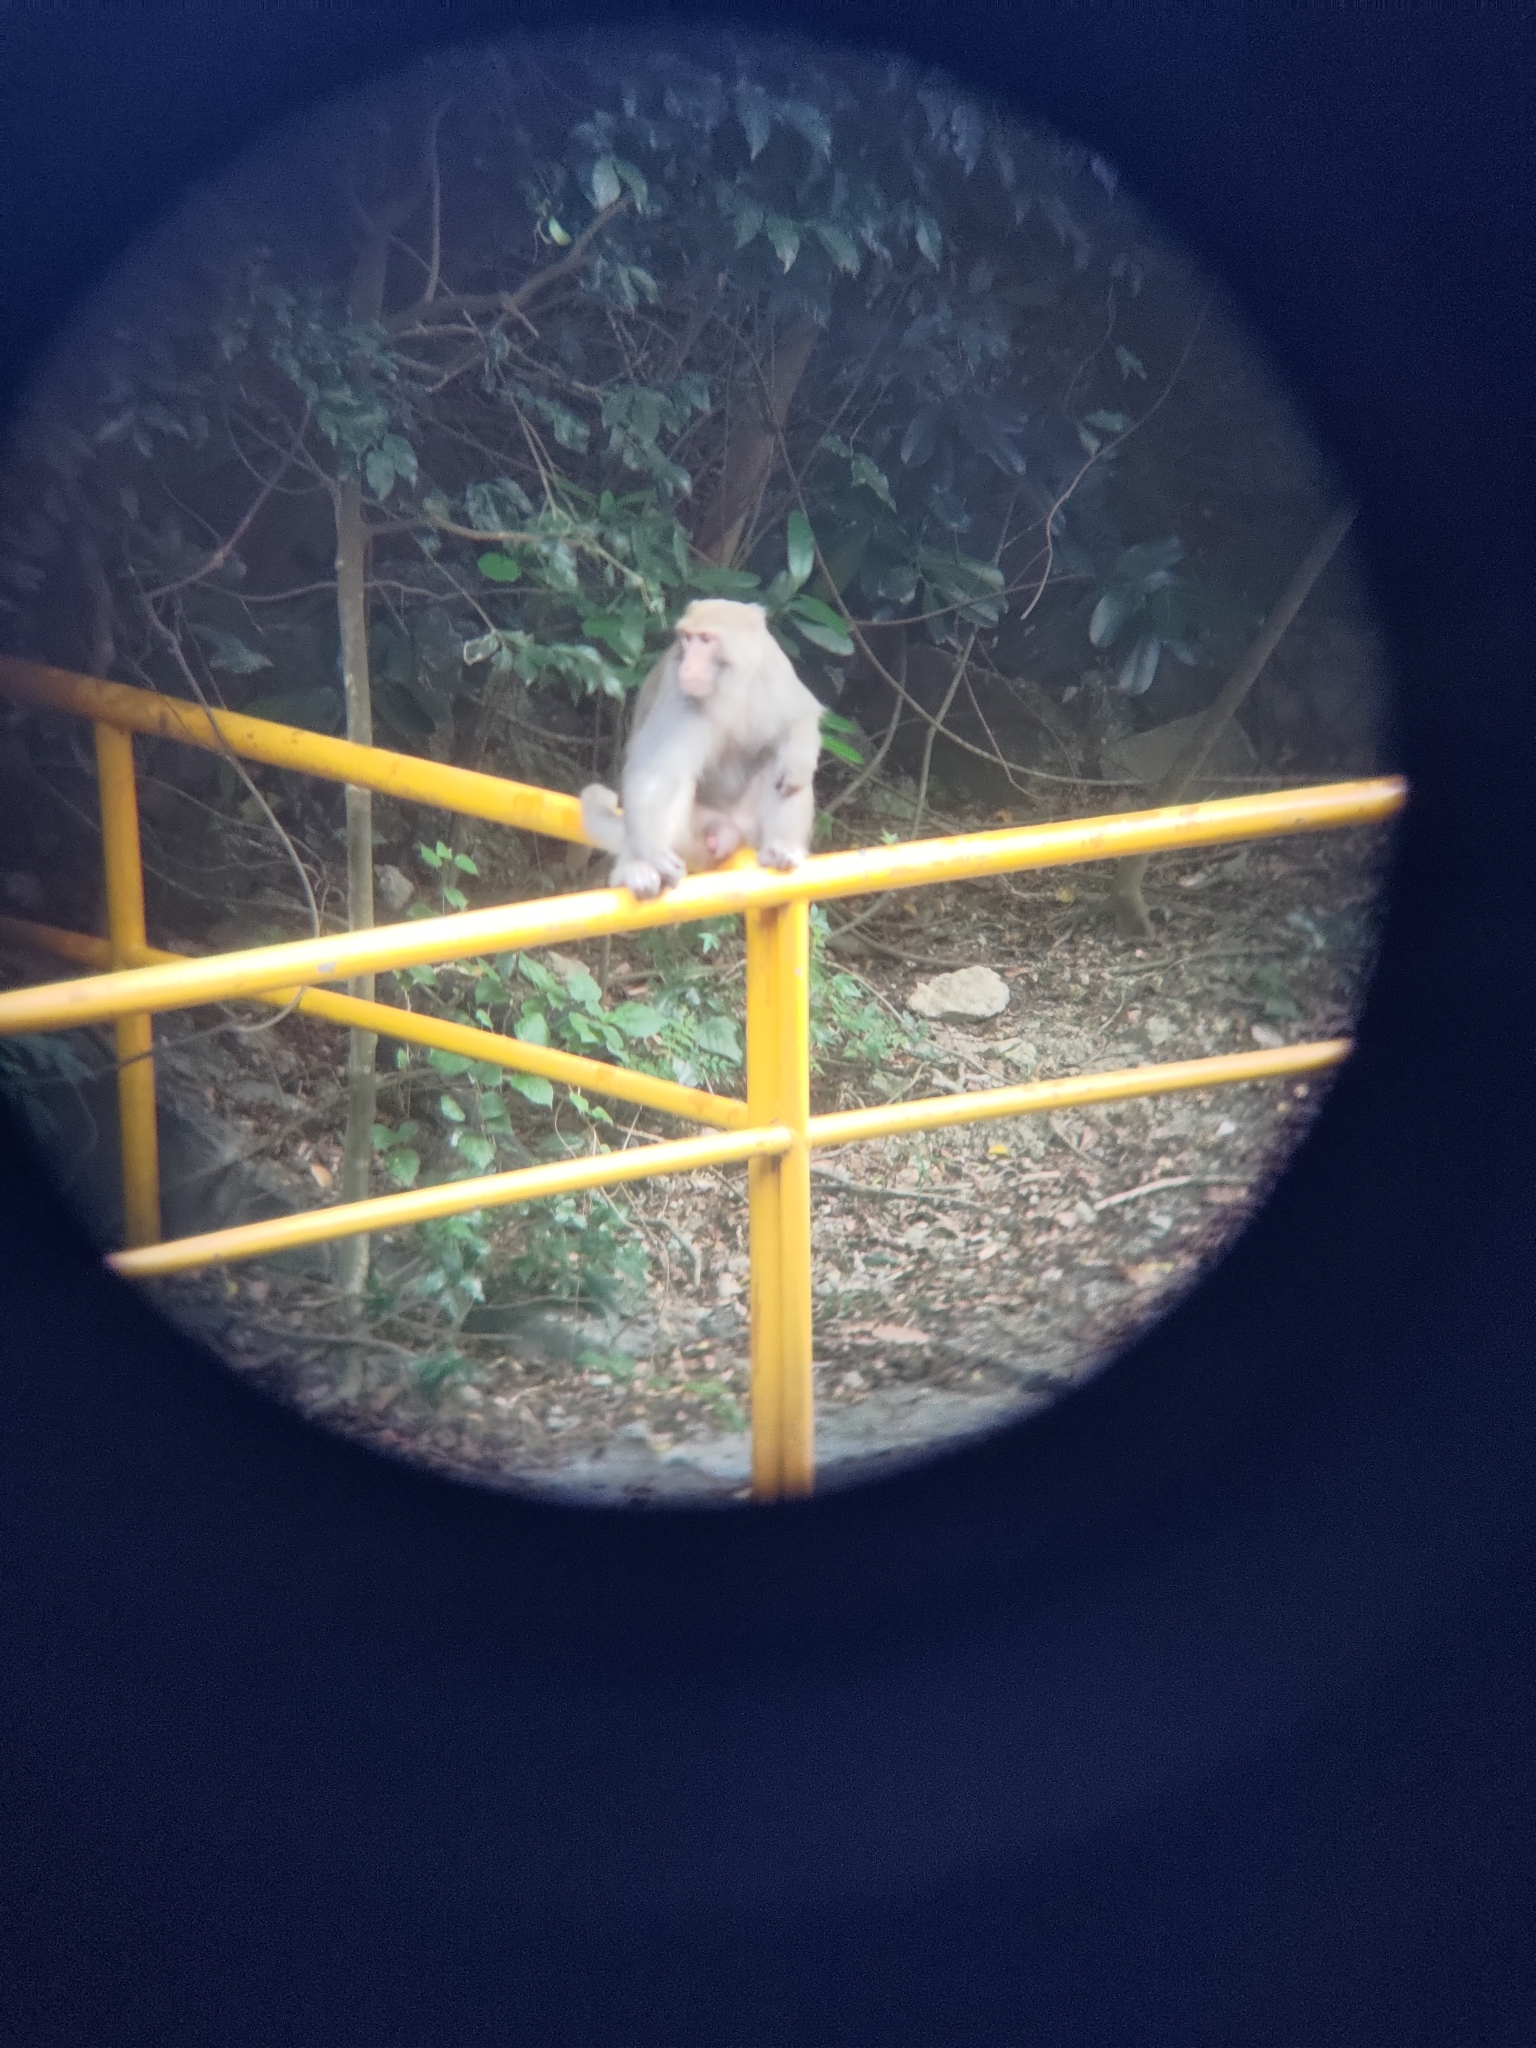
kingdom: Animalia
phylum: Chordata
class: Mammalia
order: Primates
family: Cercopithecidae
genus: Macaca
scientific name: Macaca cyclopis
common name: Formosan rock macaque
